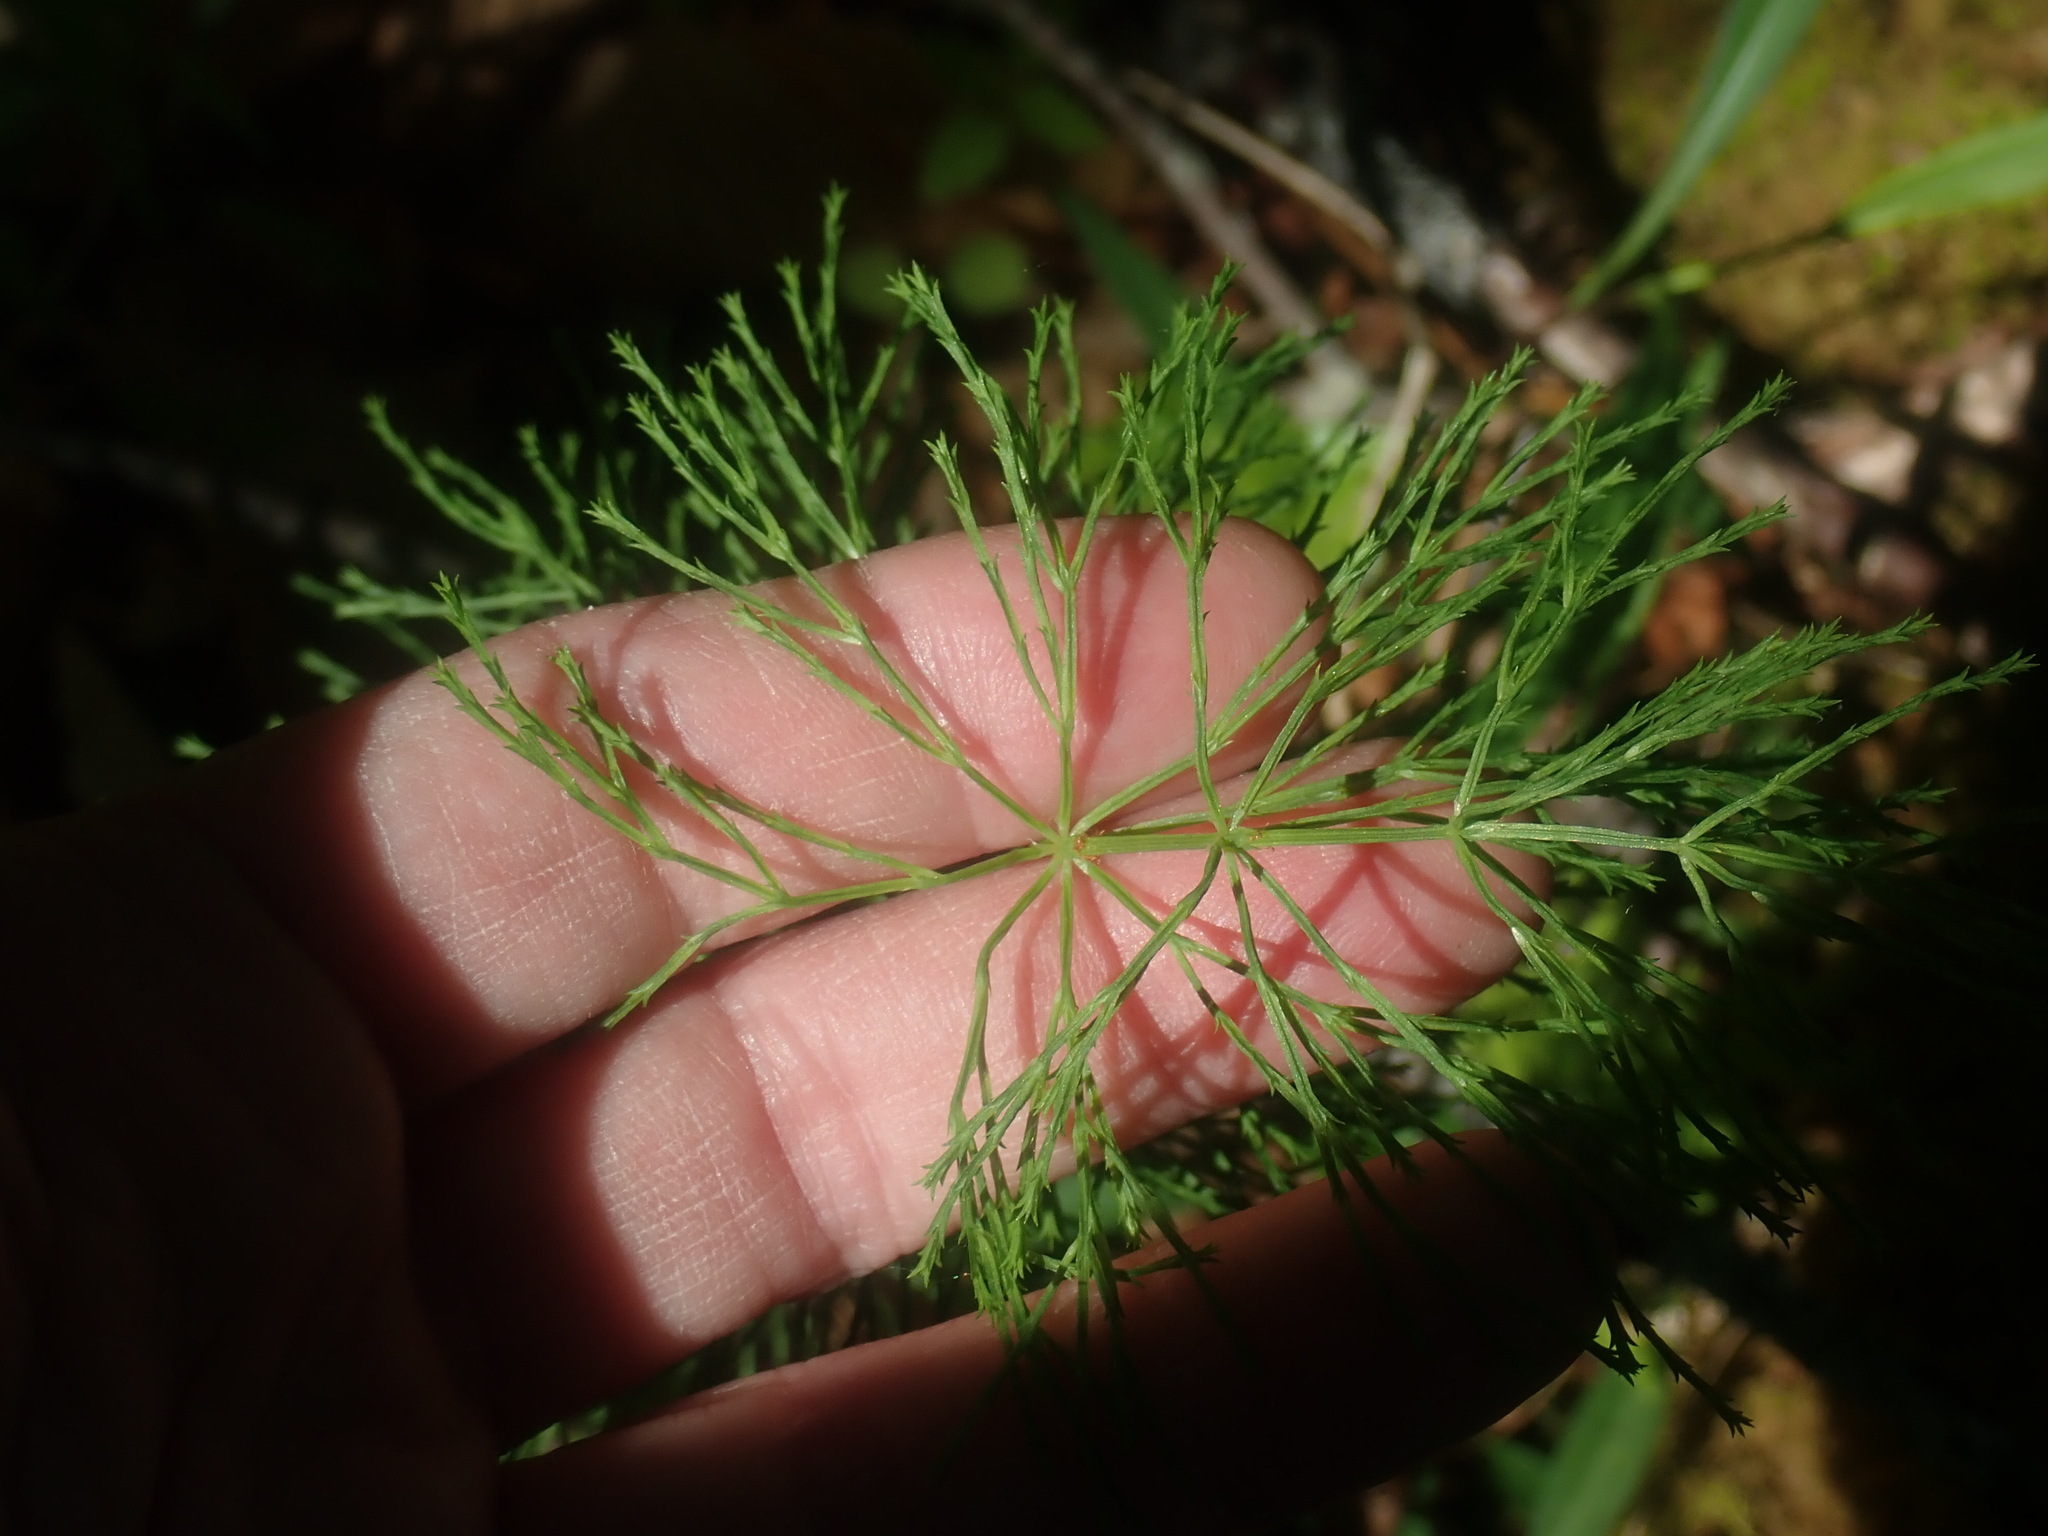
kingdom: Plantae
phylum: Tracheophyta
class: Polypodiopsida
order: Equisetales
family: Equisetaceae
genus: Equisetum
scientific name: Equisetum sylvaticum
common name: Wood horsetail
